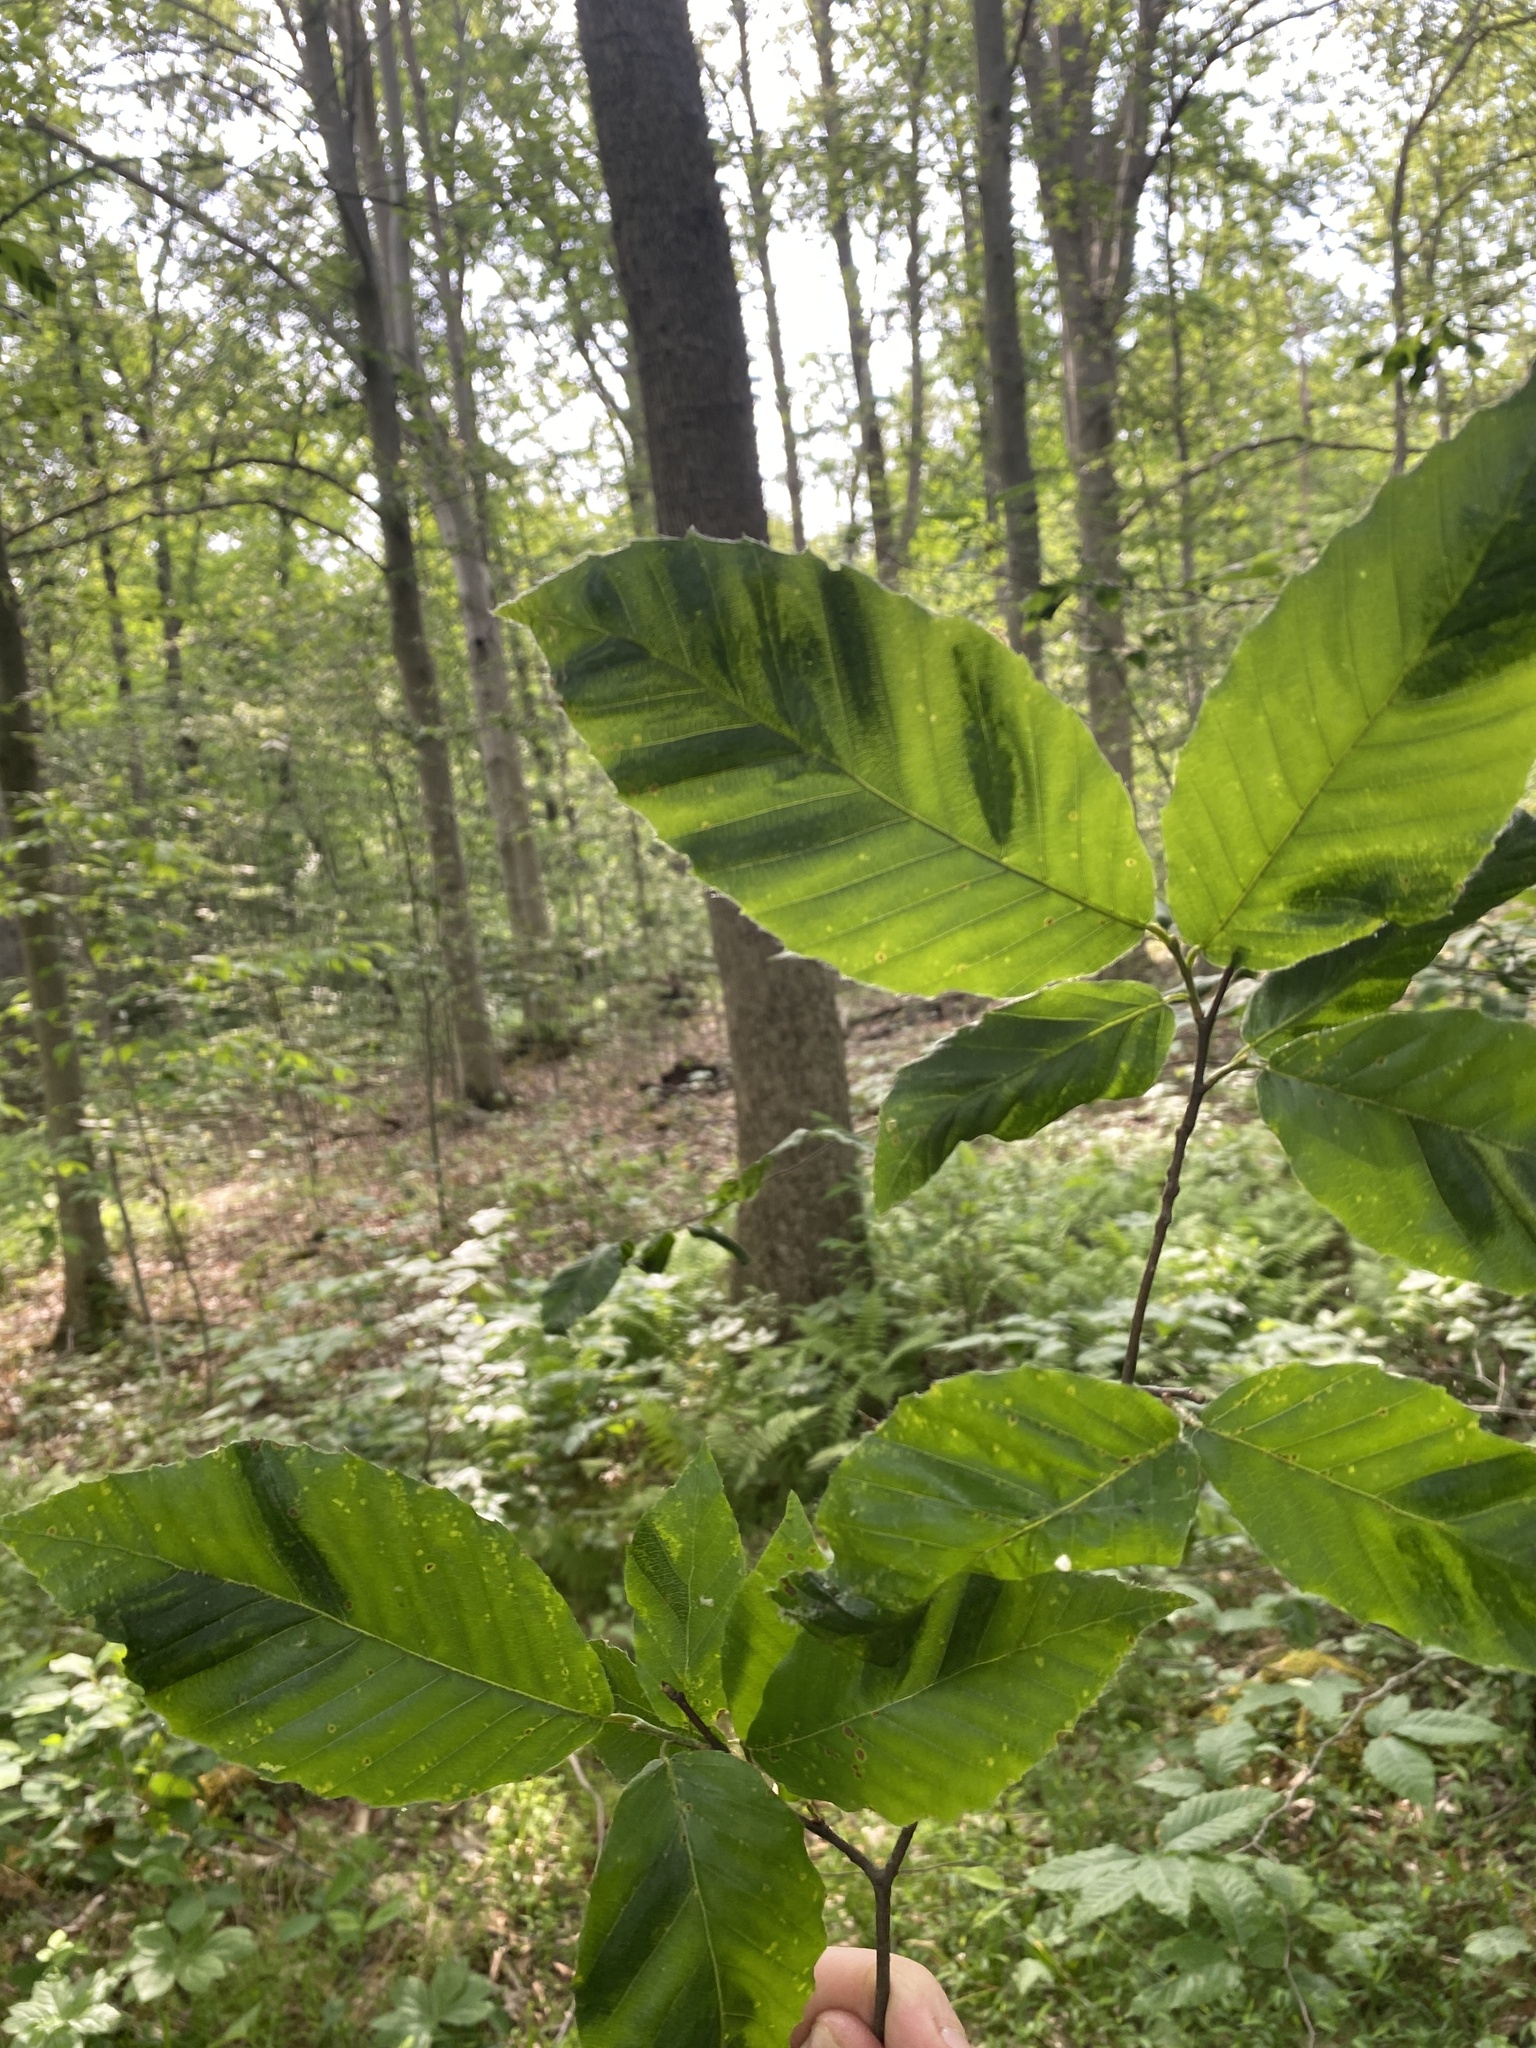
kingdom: Plantae
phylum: Tracheophyta
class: Magnoliopsida
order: Fagales
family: Fagaceae
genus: Fagus
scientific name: Fagus grandifolia
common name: American beech
